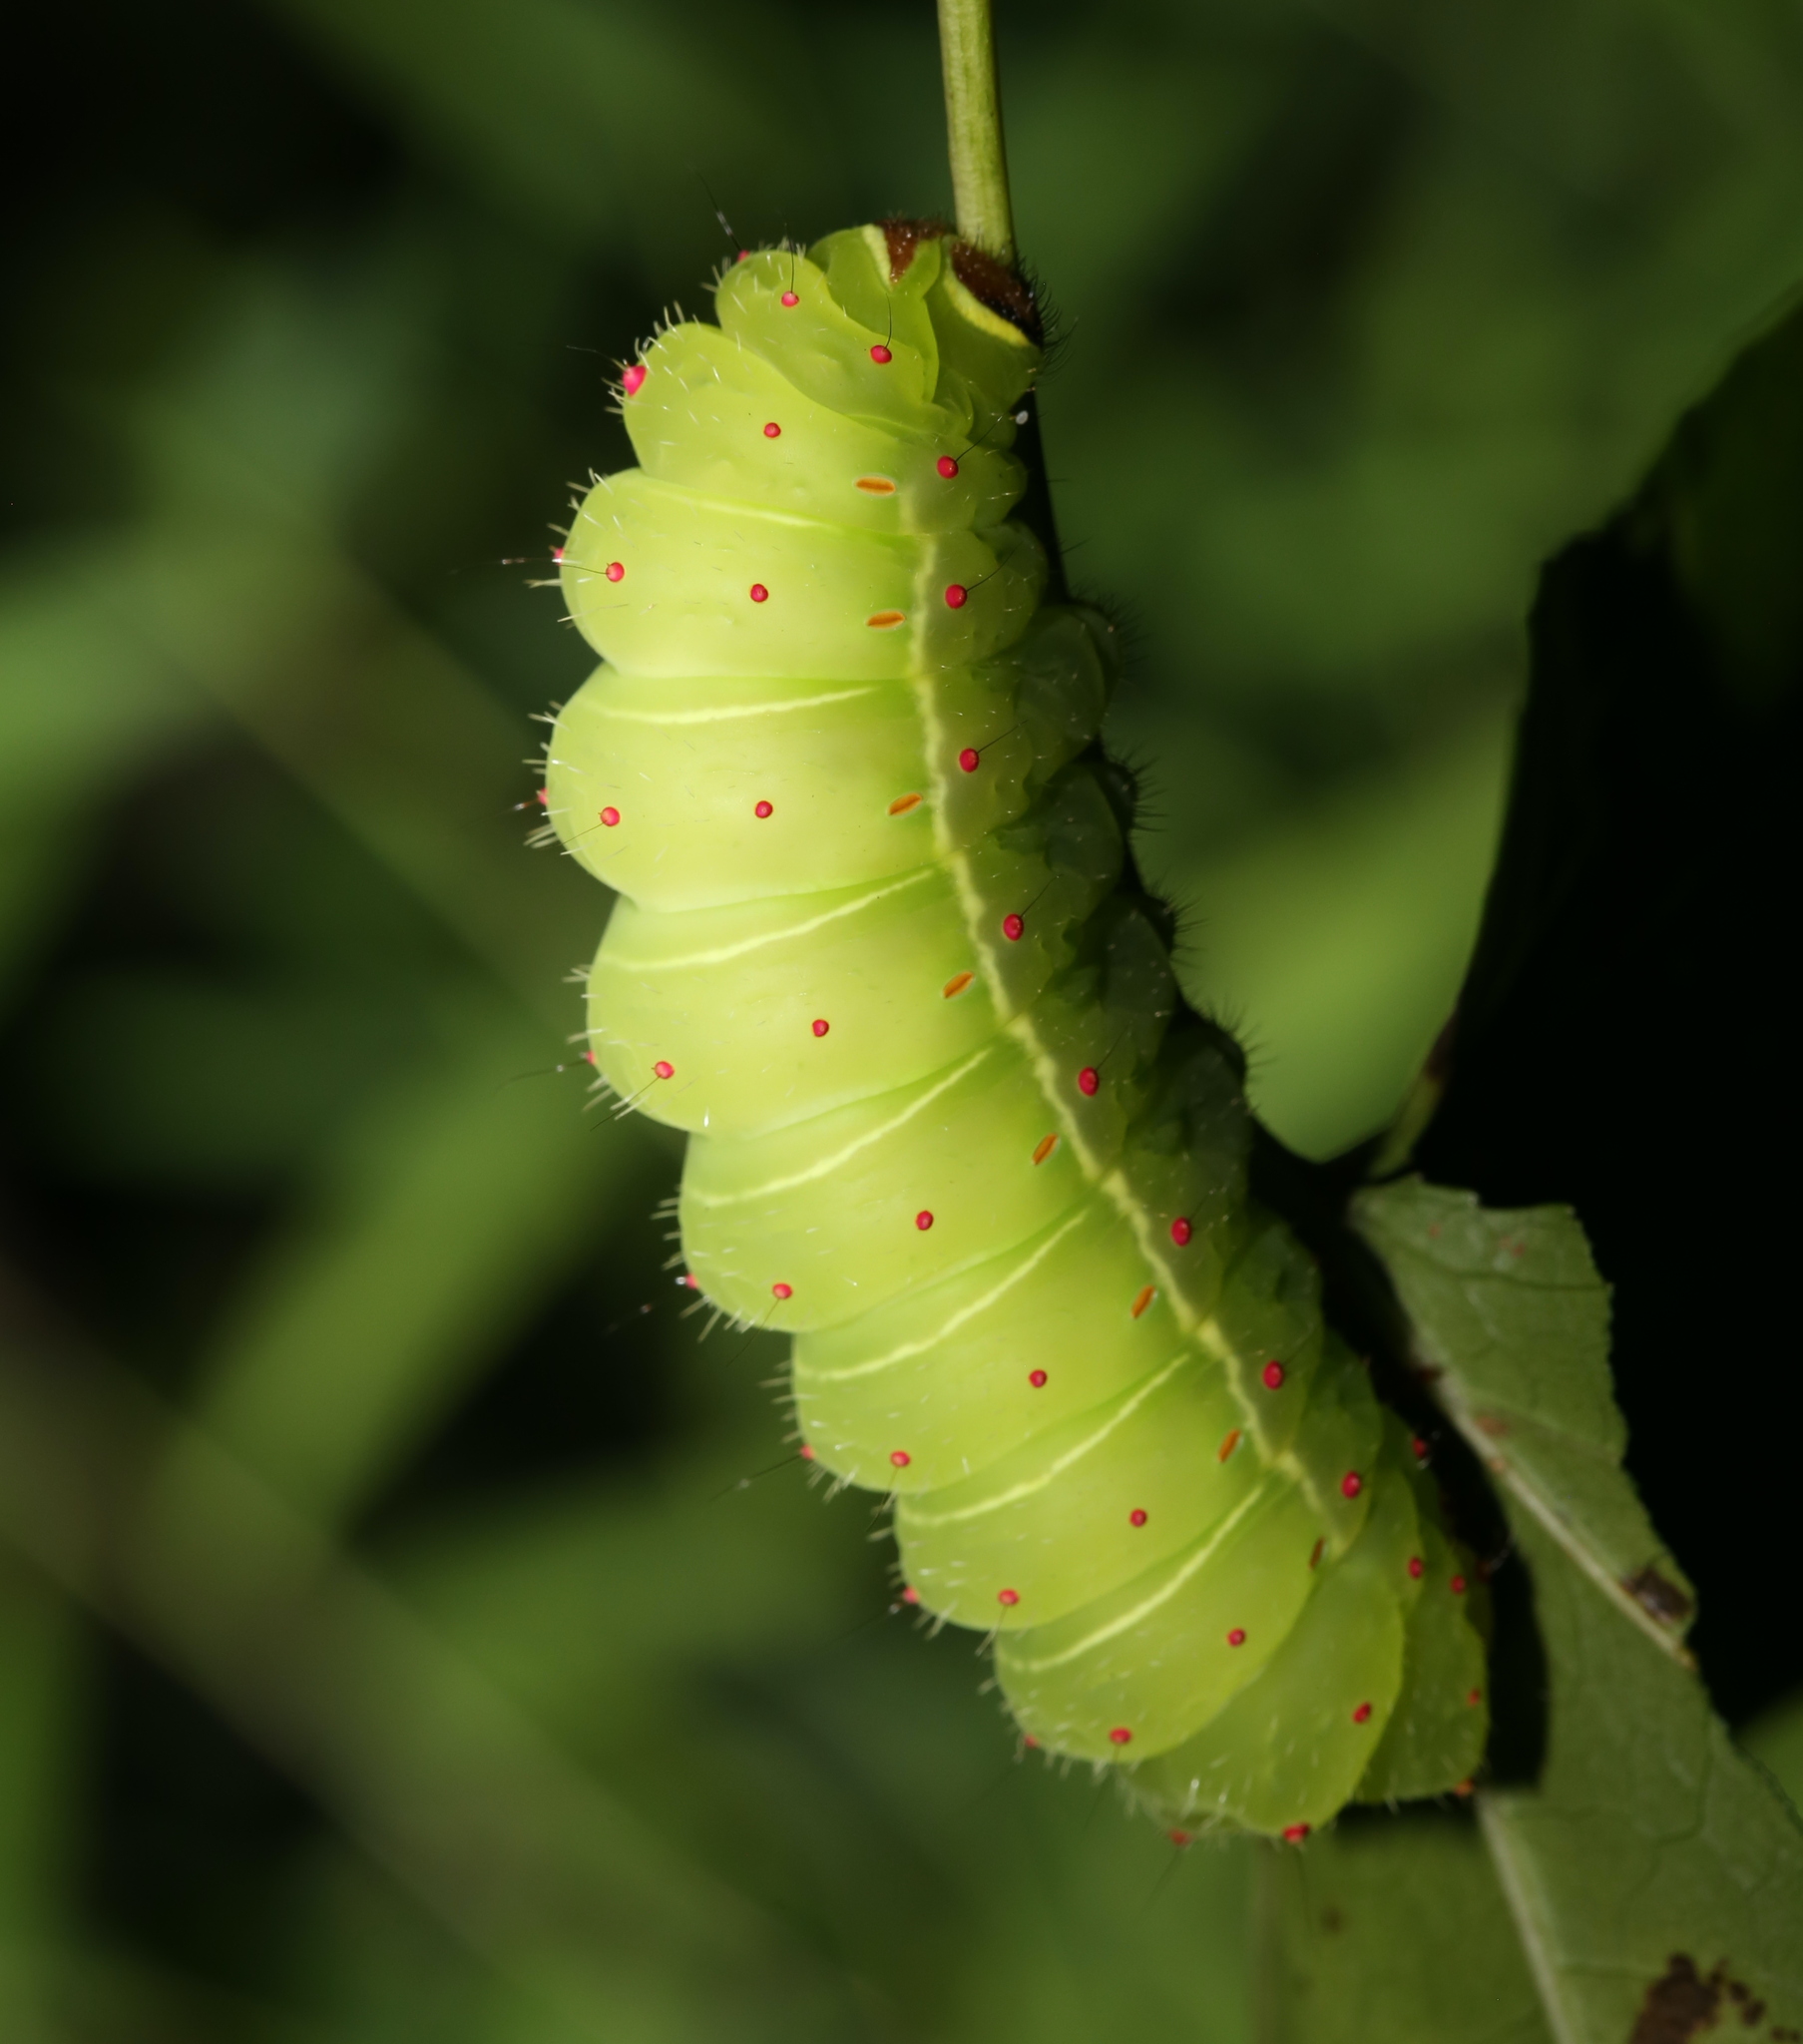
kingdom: Animalia
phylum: Arthropoda
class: Insecta
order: Lepidoptera
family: Saturniidae
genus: Actias
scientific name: Actias luna
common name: Luna moth
